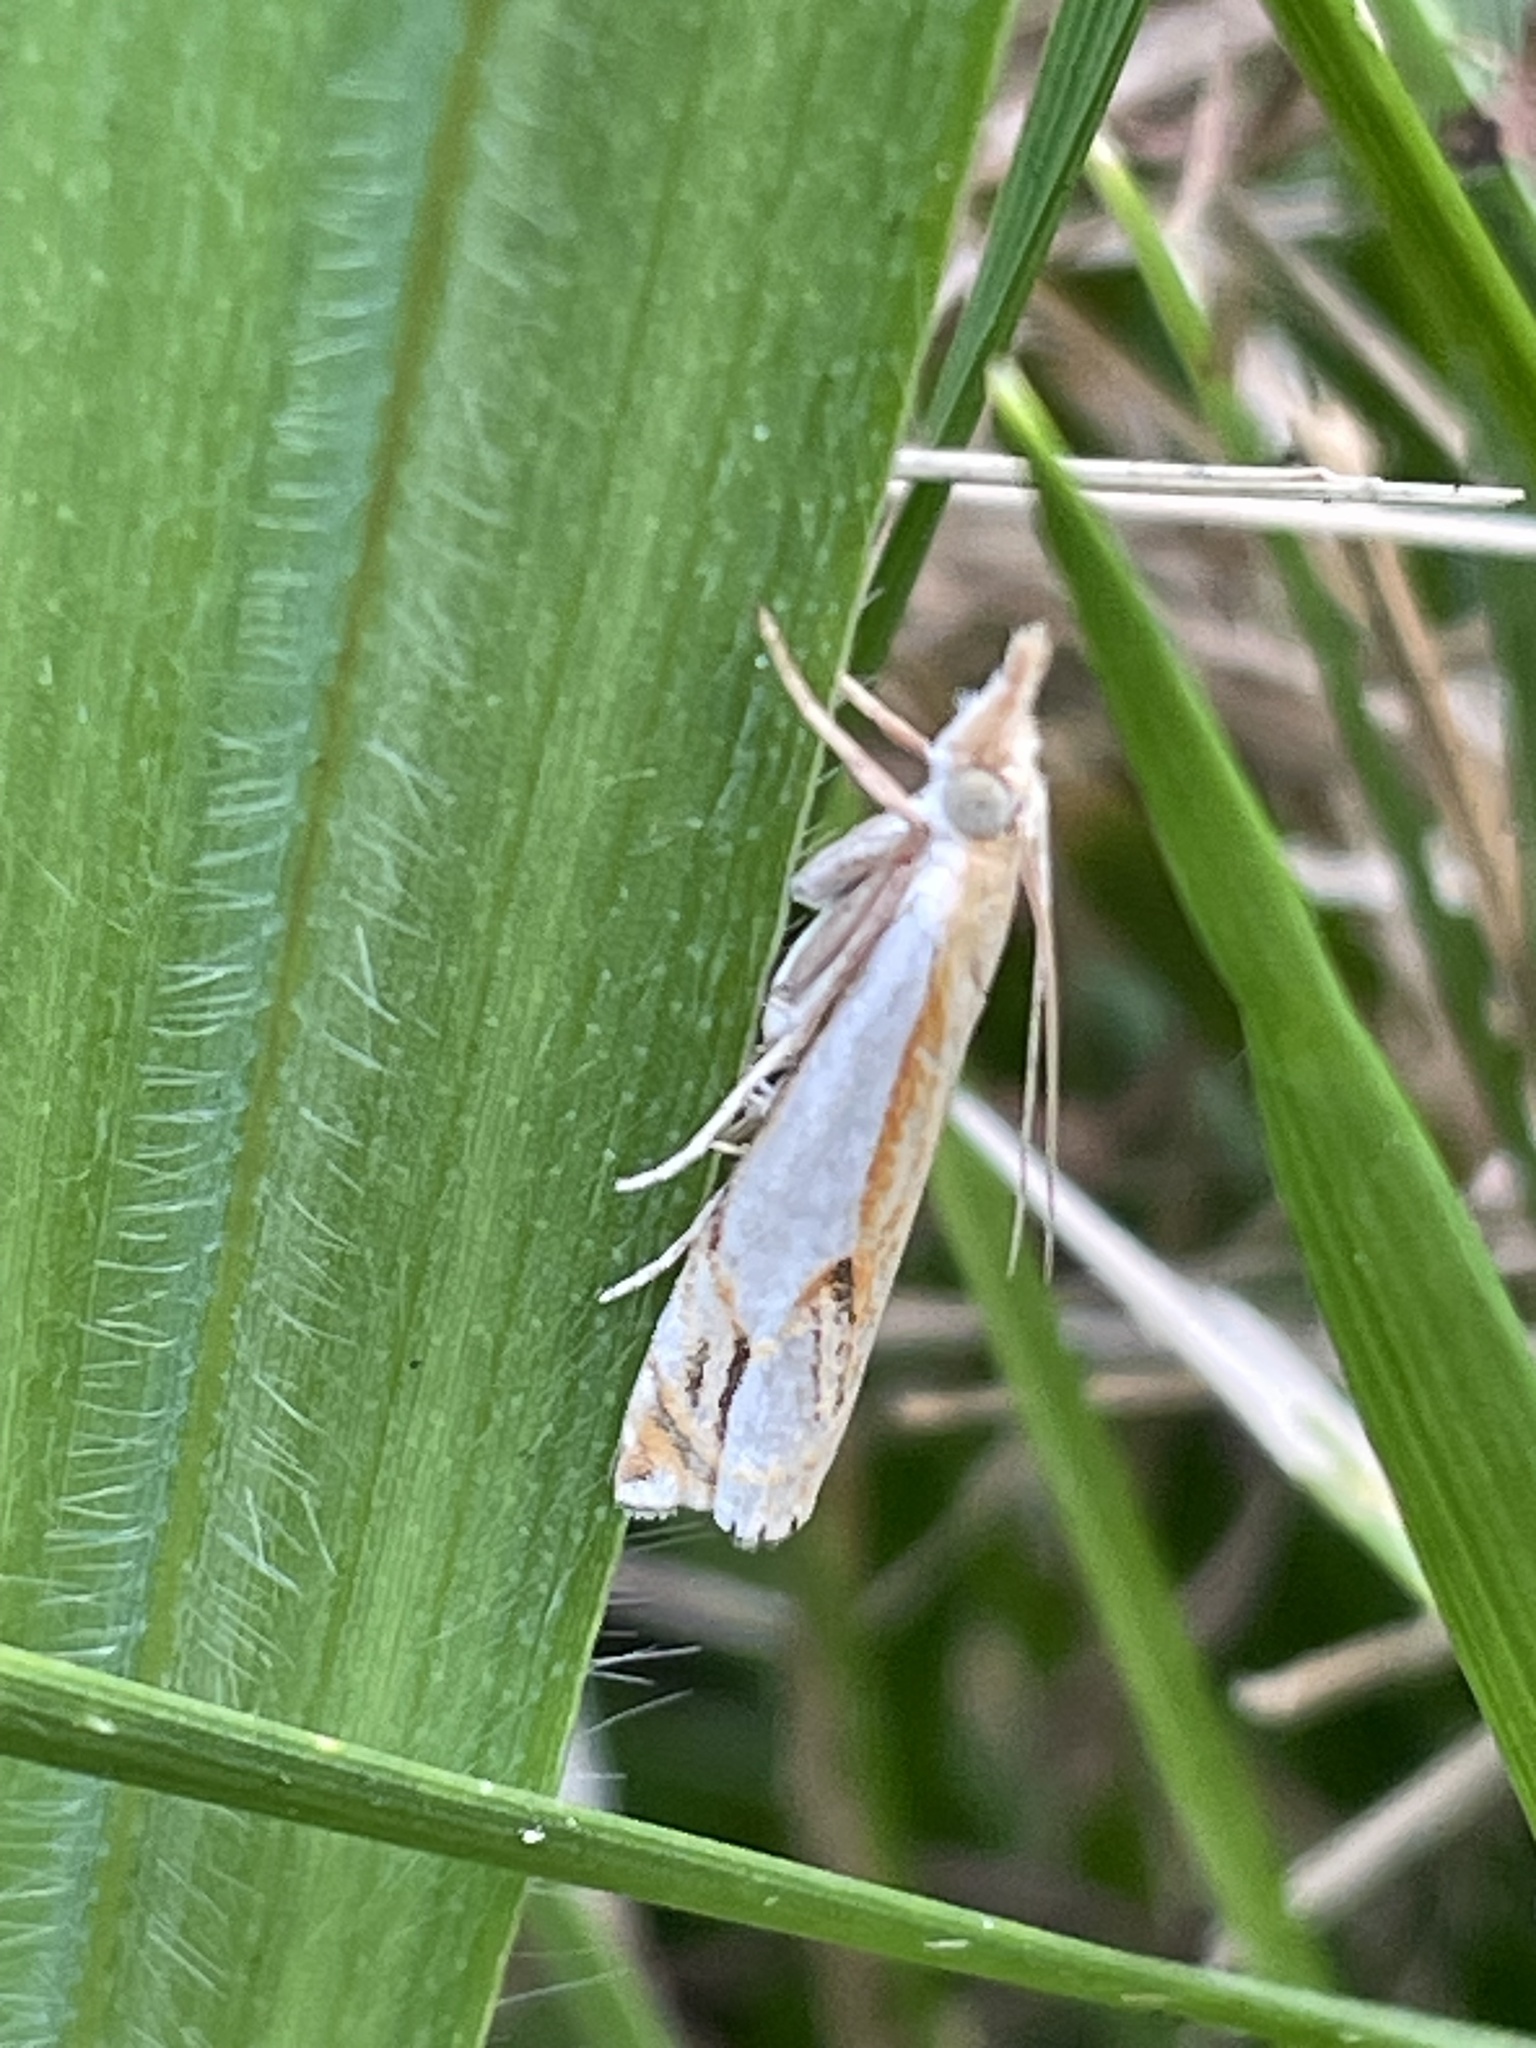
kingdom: Animalia
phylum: Arthropoda
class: Insecta
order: Lepidoptera
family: Crambidae
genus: Crambus
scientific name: Crambus agitatellus
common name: Double-banded grass-veneer
